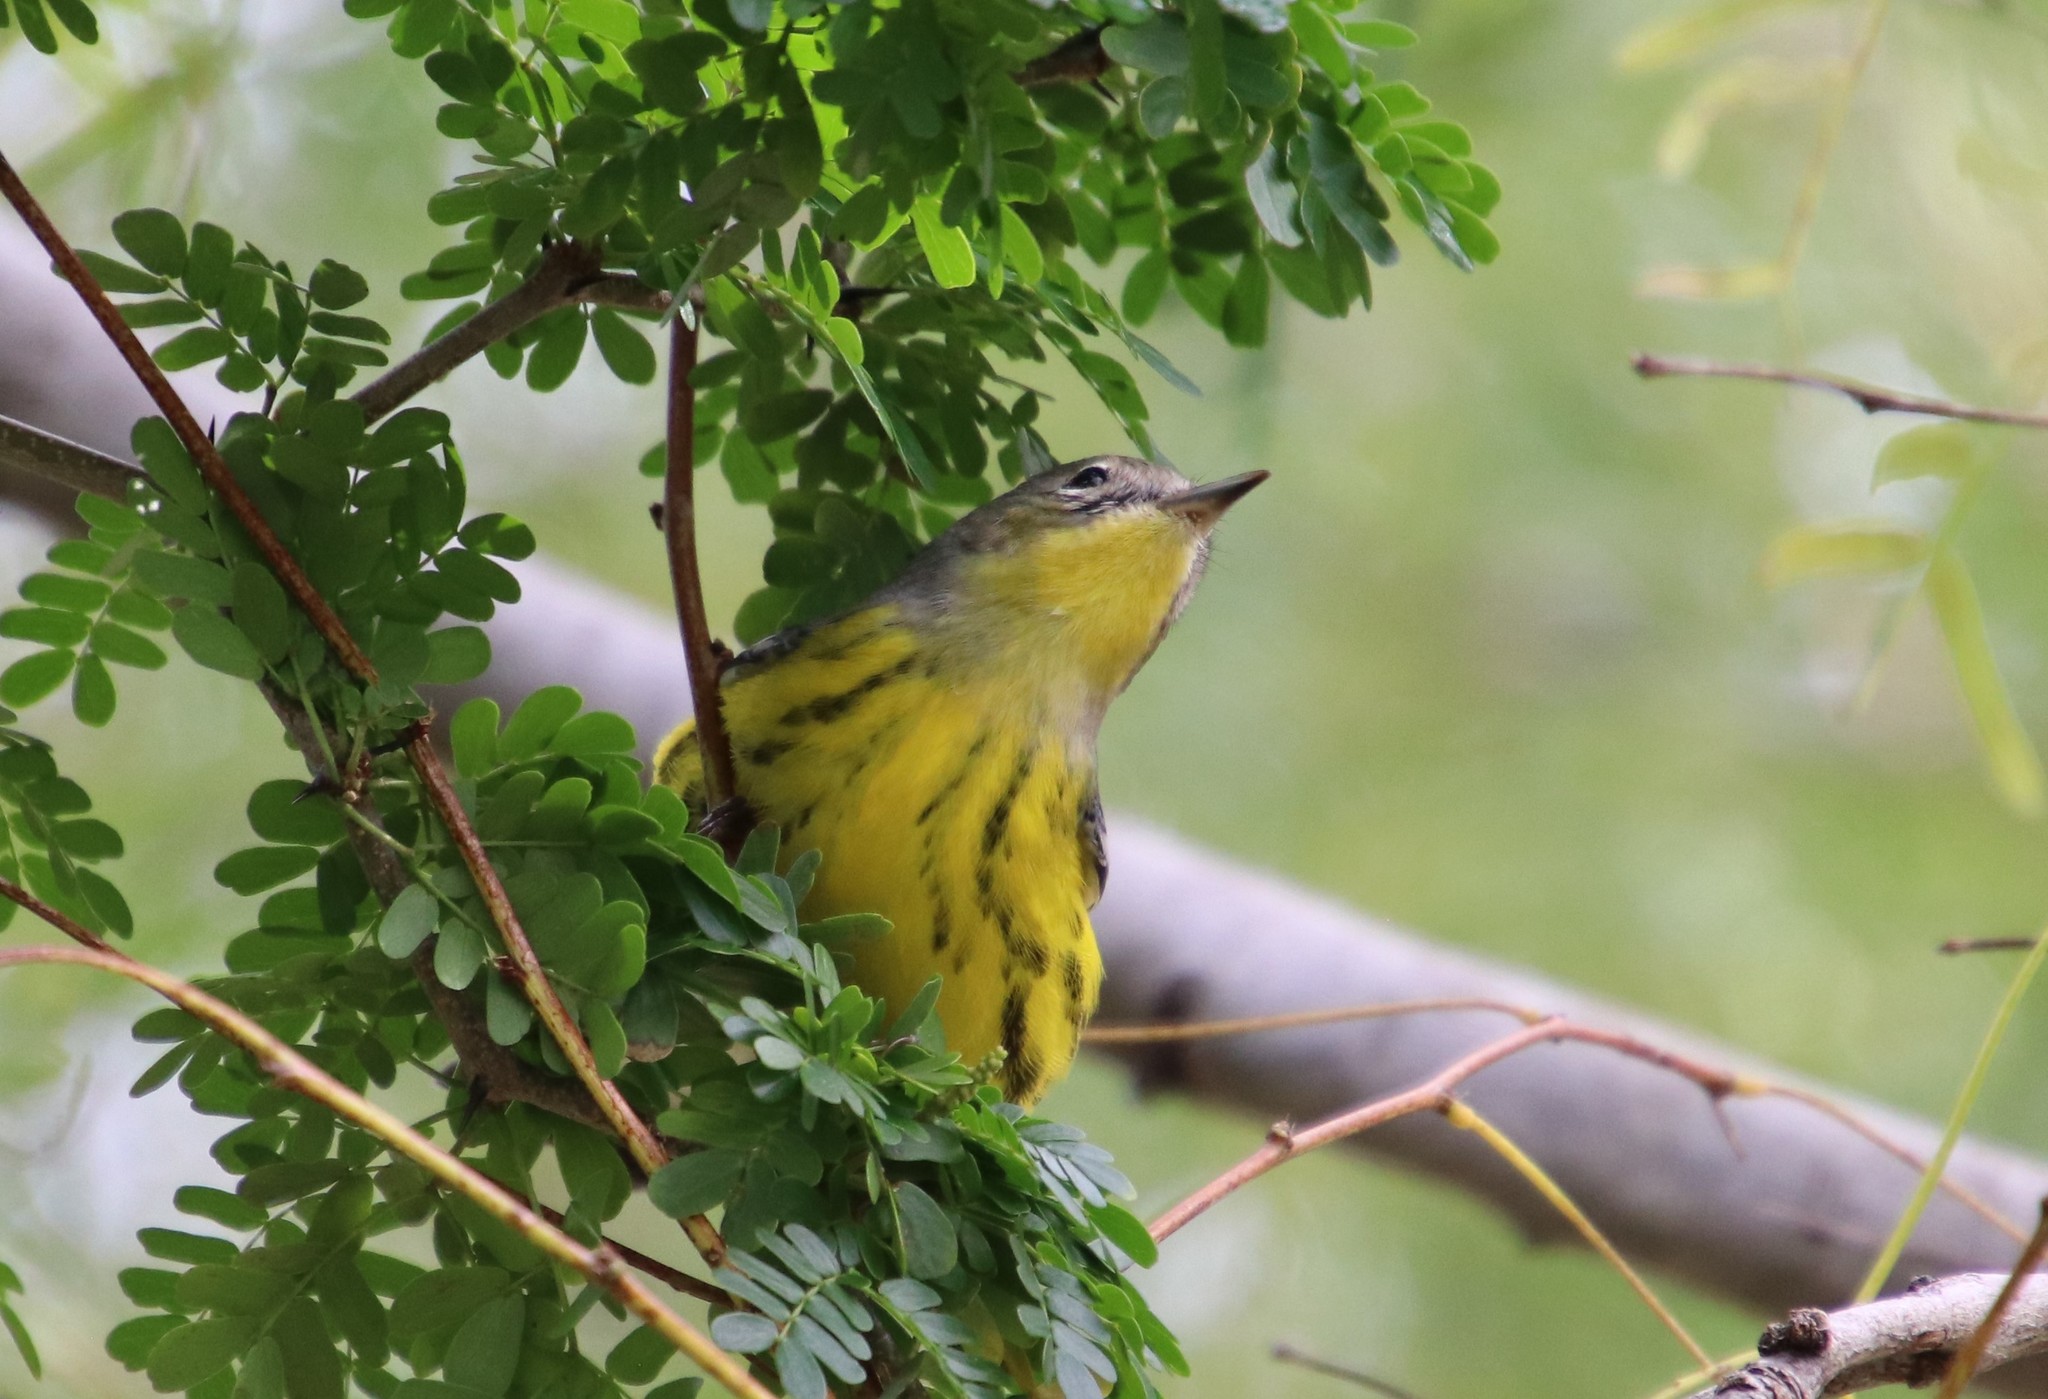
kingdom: Animalia
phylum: Chordata
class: Aves
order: Passeriformes
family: Parulidae
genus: Setophaga
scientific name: Setophaga magnolia
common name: Magnolia warbler
